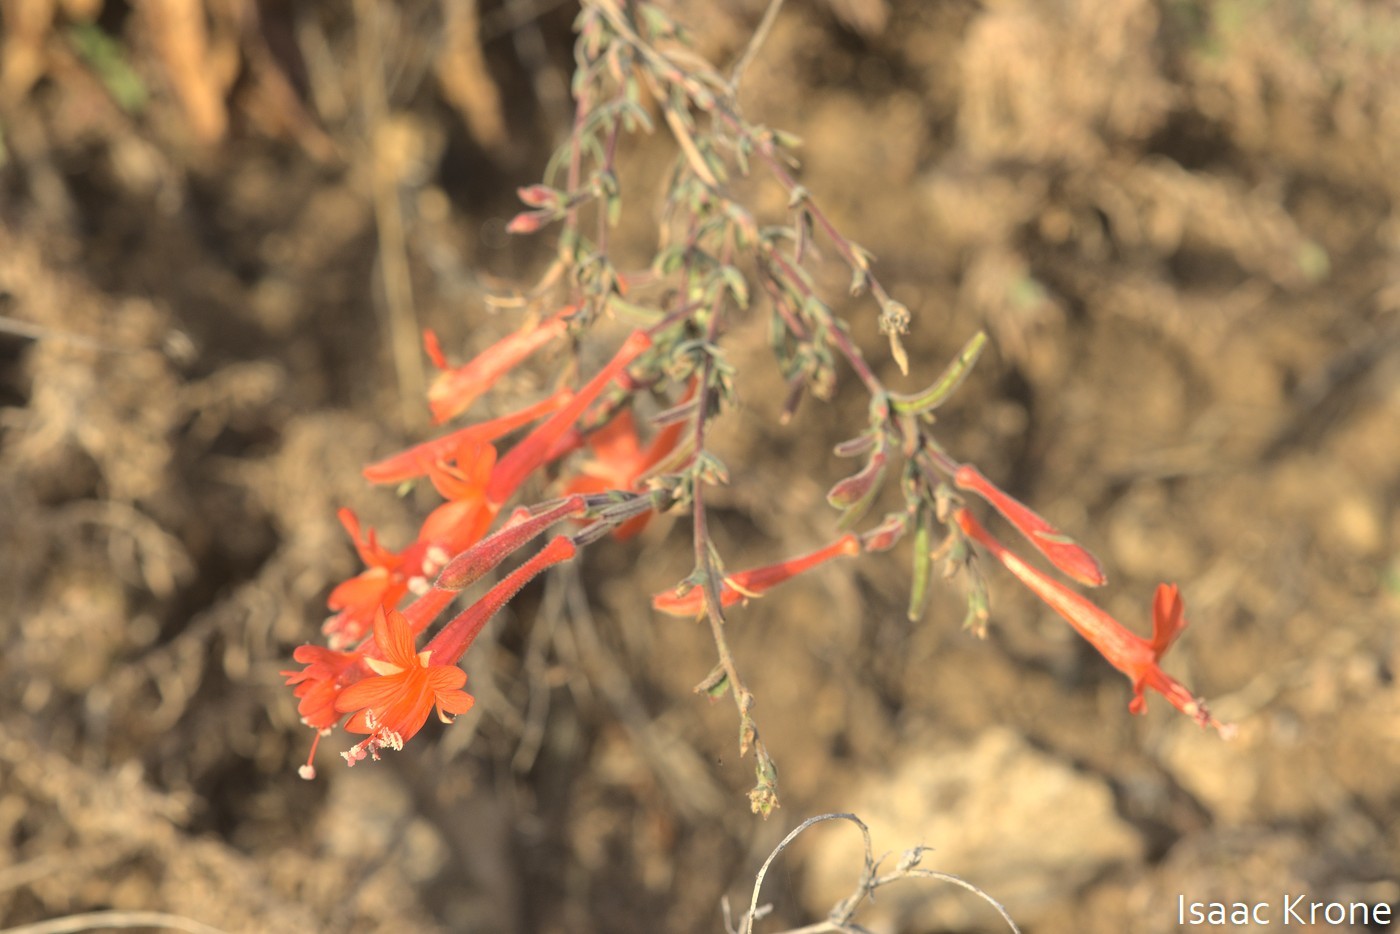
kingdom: Plantae
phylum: Tracheophyta
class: Magnoliopsida
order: Myrtales
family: Onagraceae
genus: Epilobium
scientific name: Epilobium canum
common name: California-fuchsia
